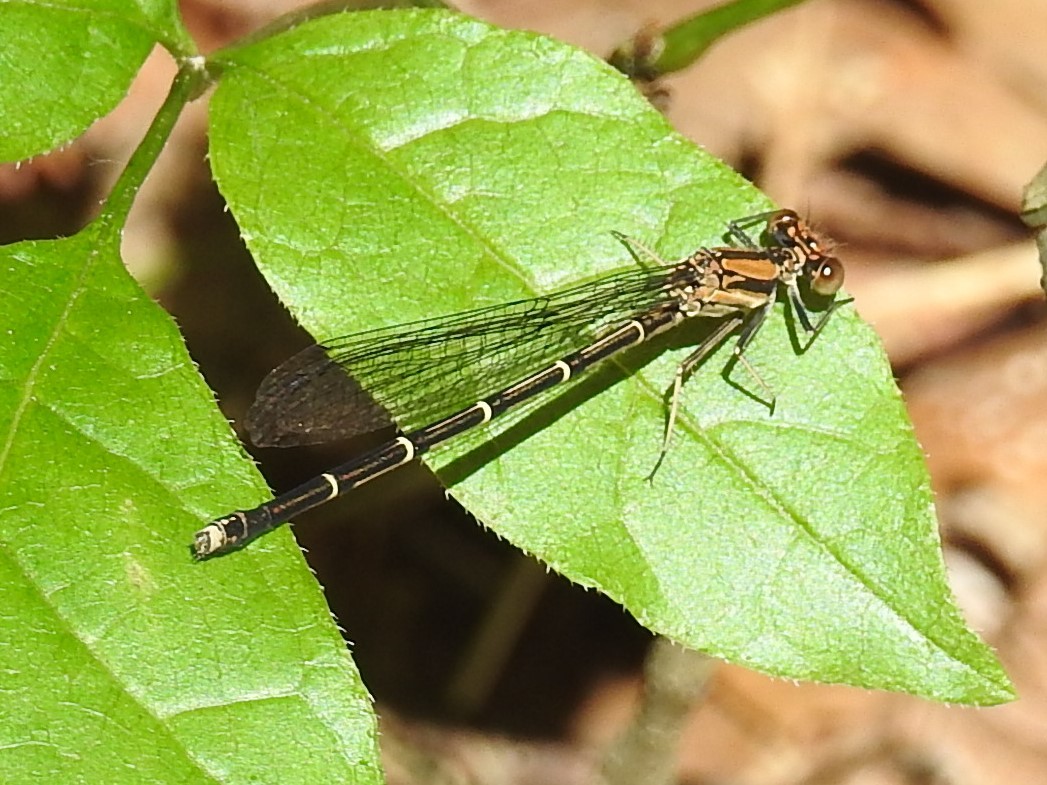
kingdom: Animalia
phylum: Arthropoda
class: Insecta
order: Odonata
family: Coenagrionidae
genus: Argia
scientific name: Argia tibialis
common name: Blue-tipped dancer
